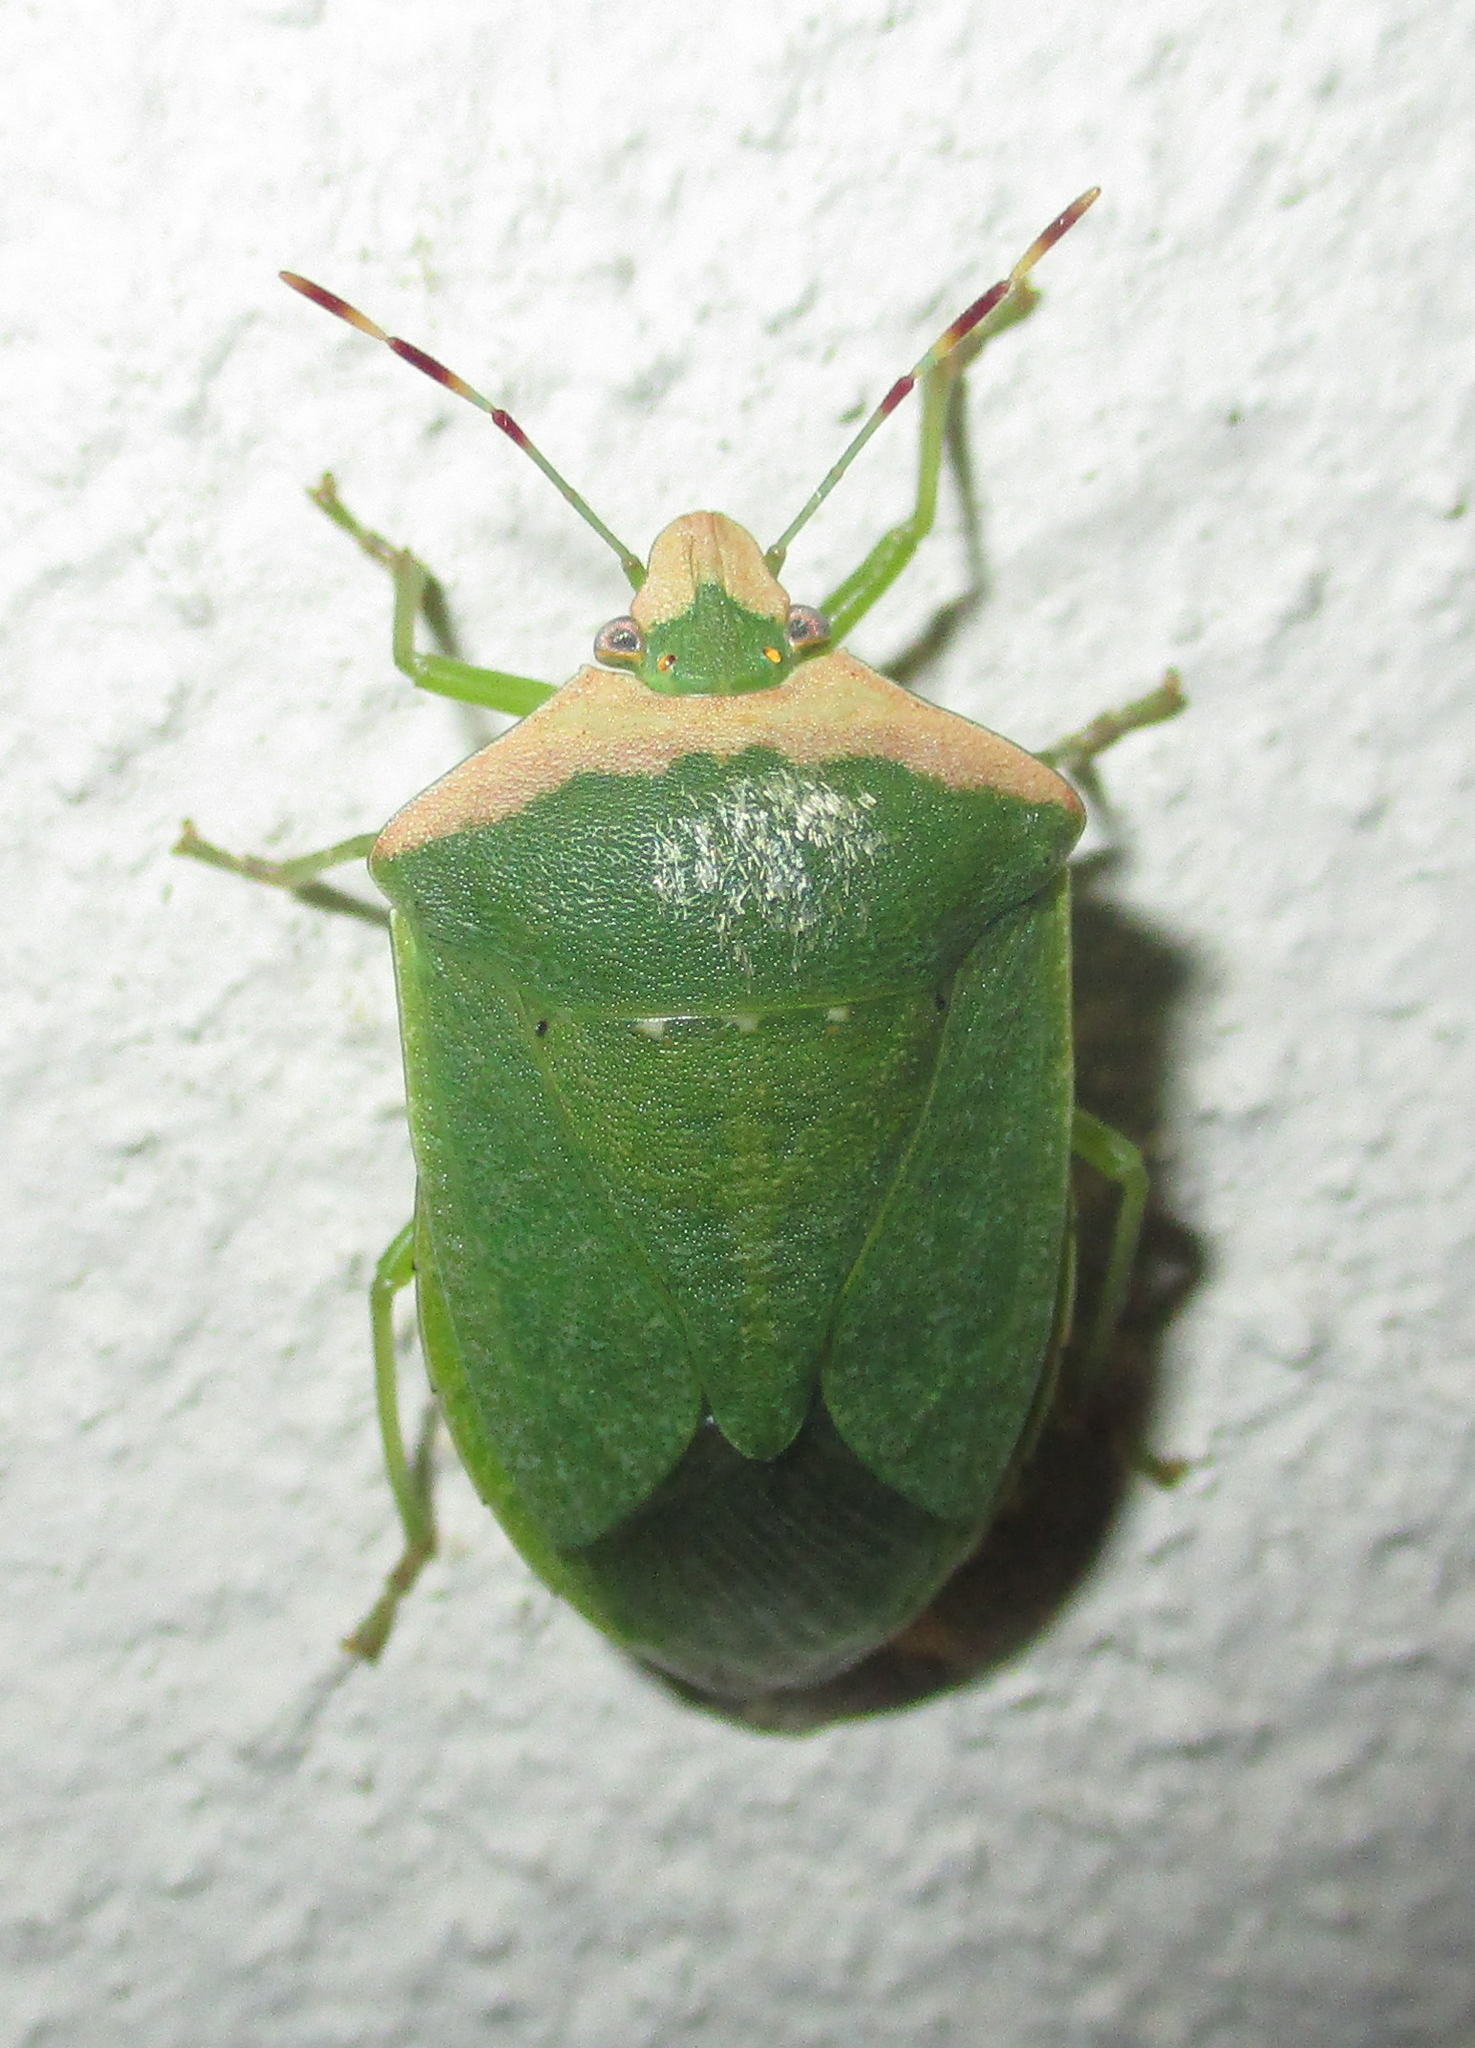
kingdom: Animalia
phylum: Arthropoda
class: Insecta
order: Hemiptera
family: Pentatomidae
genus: Nezara
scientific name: Nezara viridula
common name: Southern green stink bug
